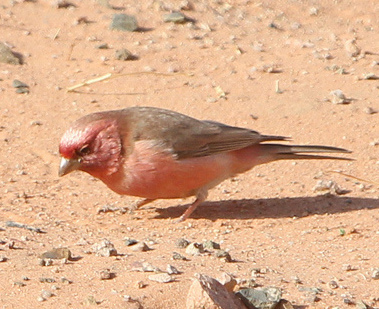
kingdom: Animalia
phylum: Chordata
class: Aves
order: Passeriformes
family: Fringillidae
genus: Carpodacus
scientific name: Carpodacus synoicus
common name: Sinai rosefinch
